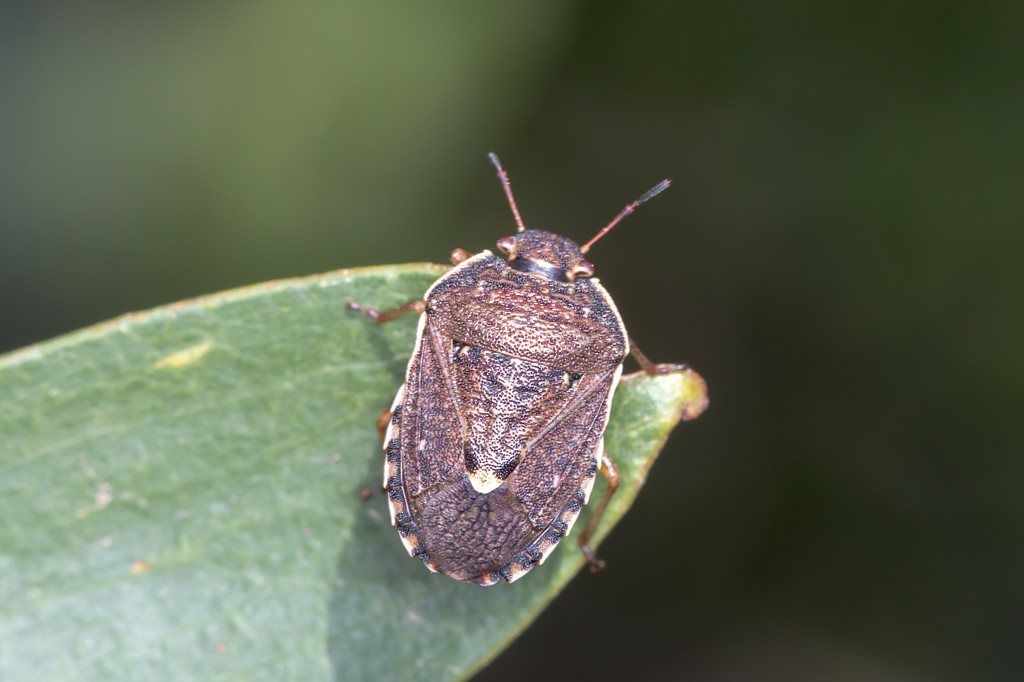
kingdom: Animalia
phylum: Arthropoda
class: Insecta
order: Hemiptera
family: Pentatomidae
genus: Dictyotus
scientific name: Dictyotus
